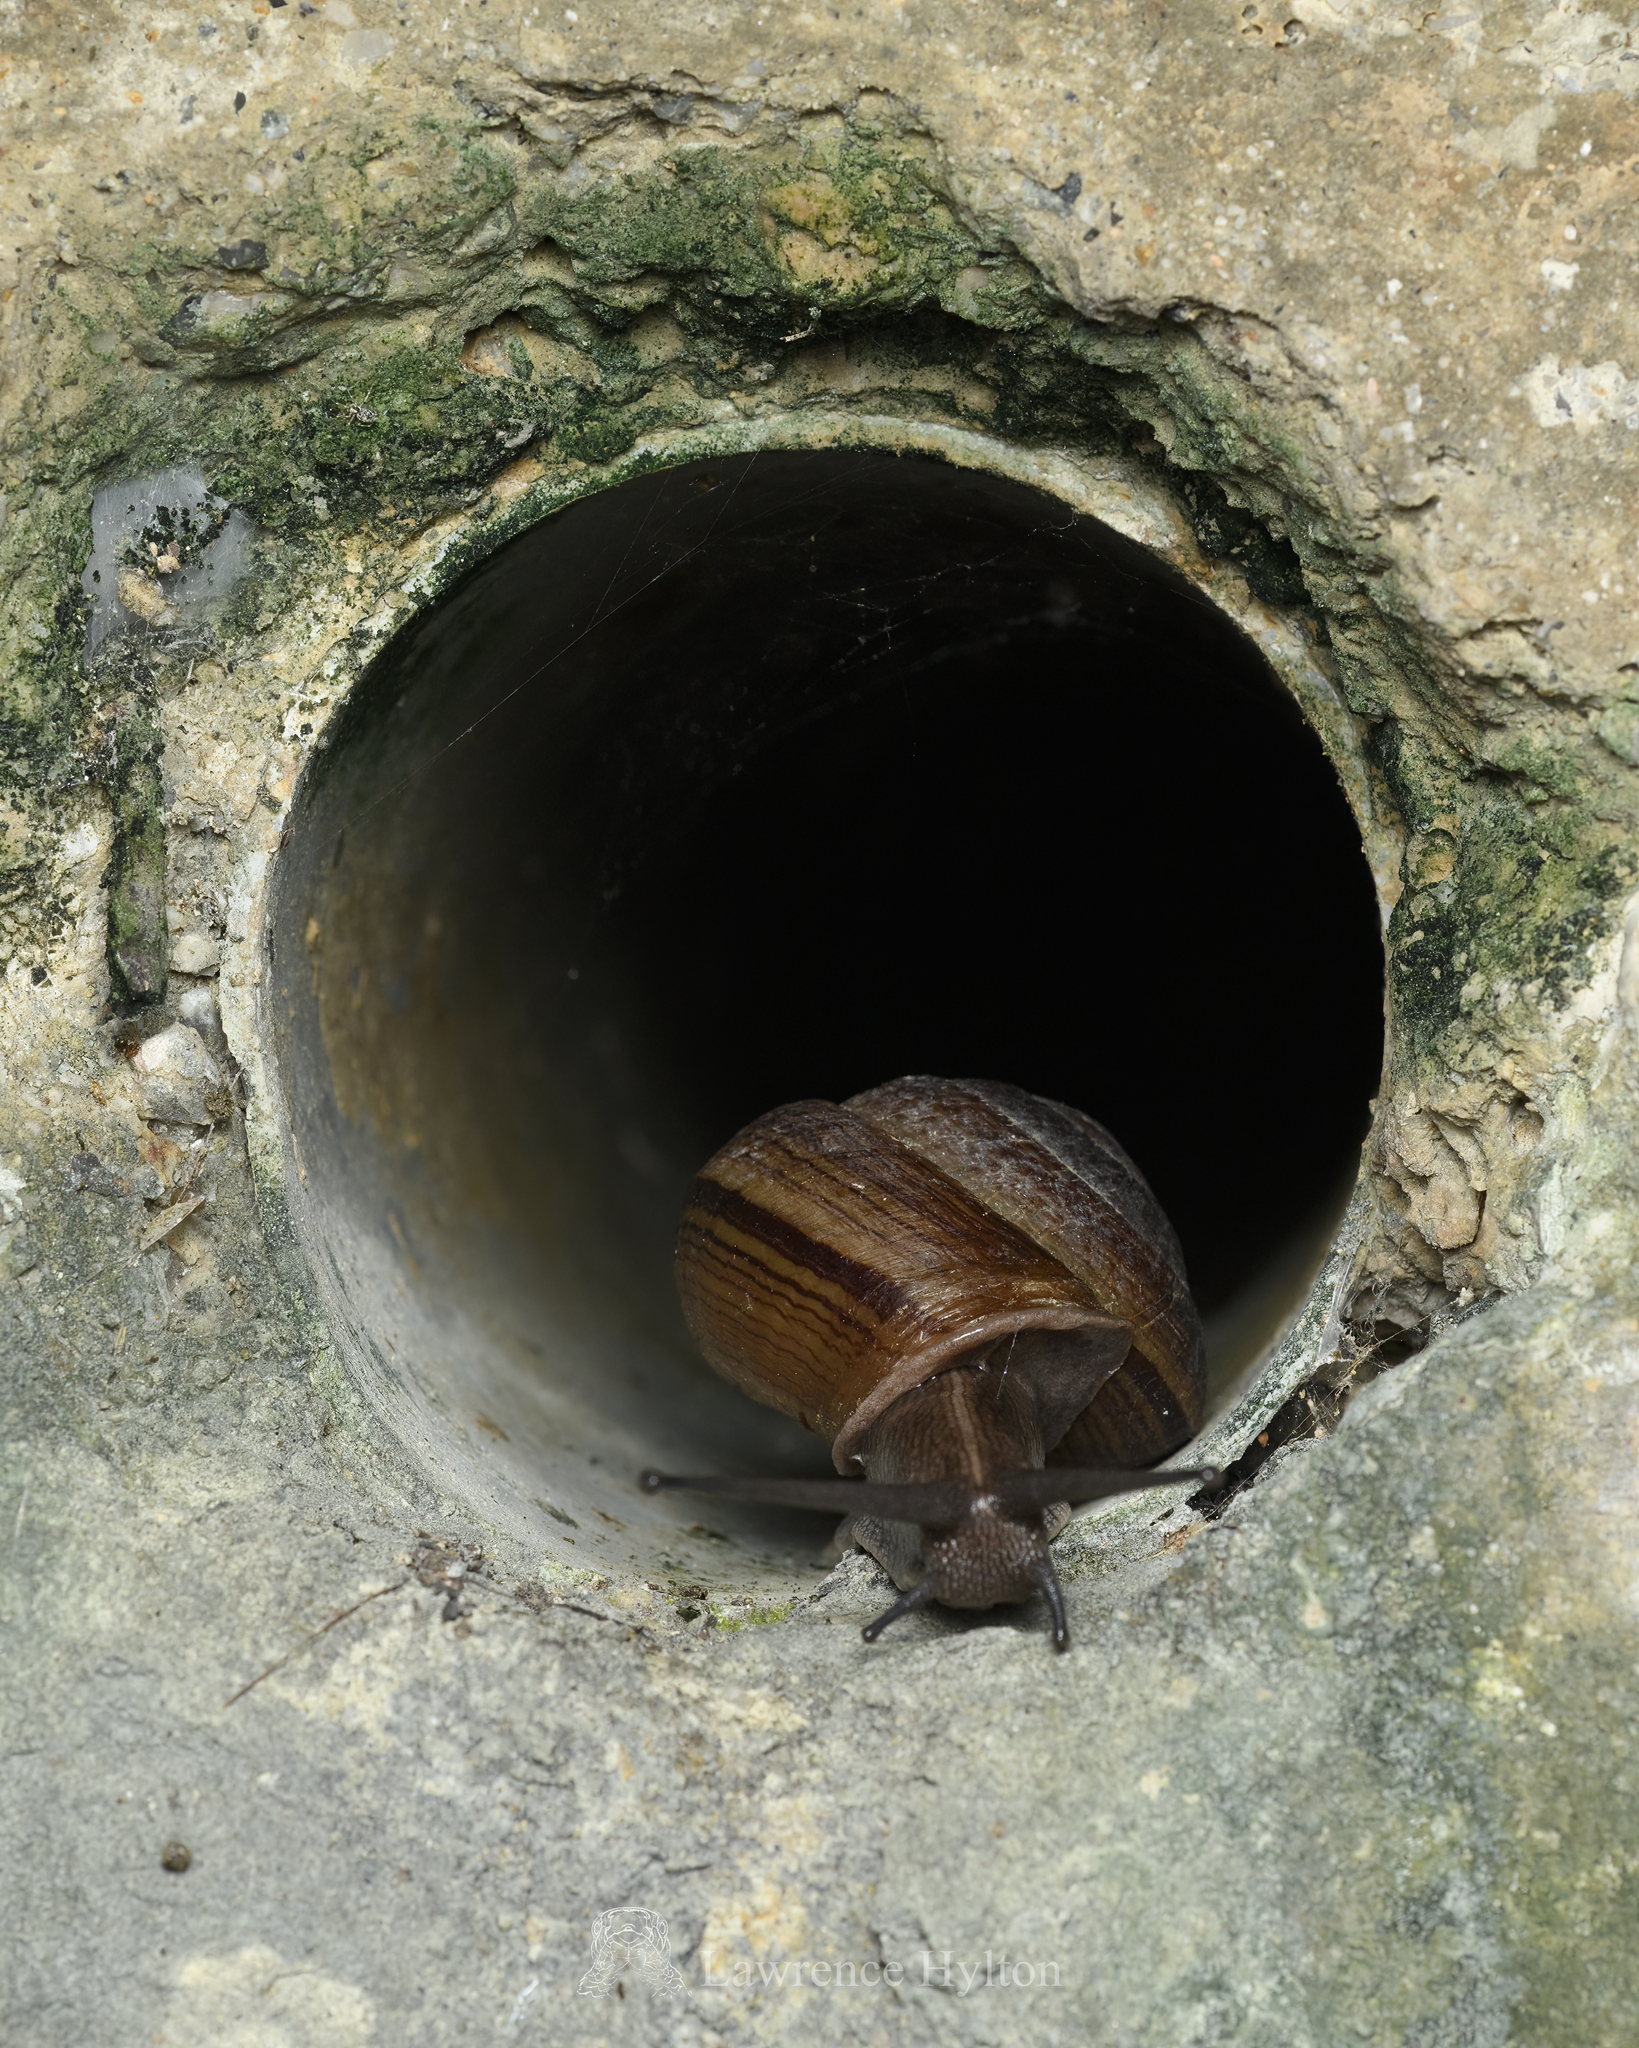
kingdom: Animalia
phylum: Mollusca
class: Gastropoda
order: Stylommatophora
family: Camaenidae
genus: Camaena
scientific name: Camaena cicatricosa
